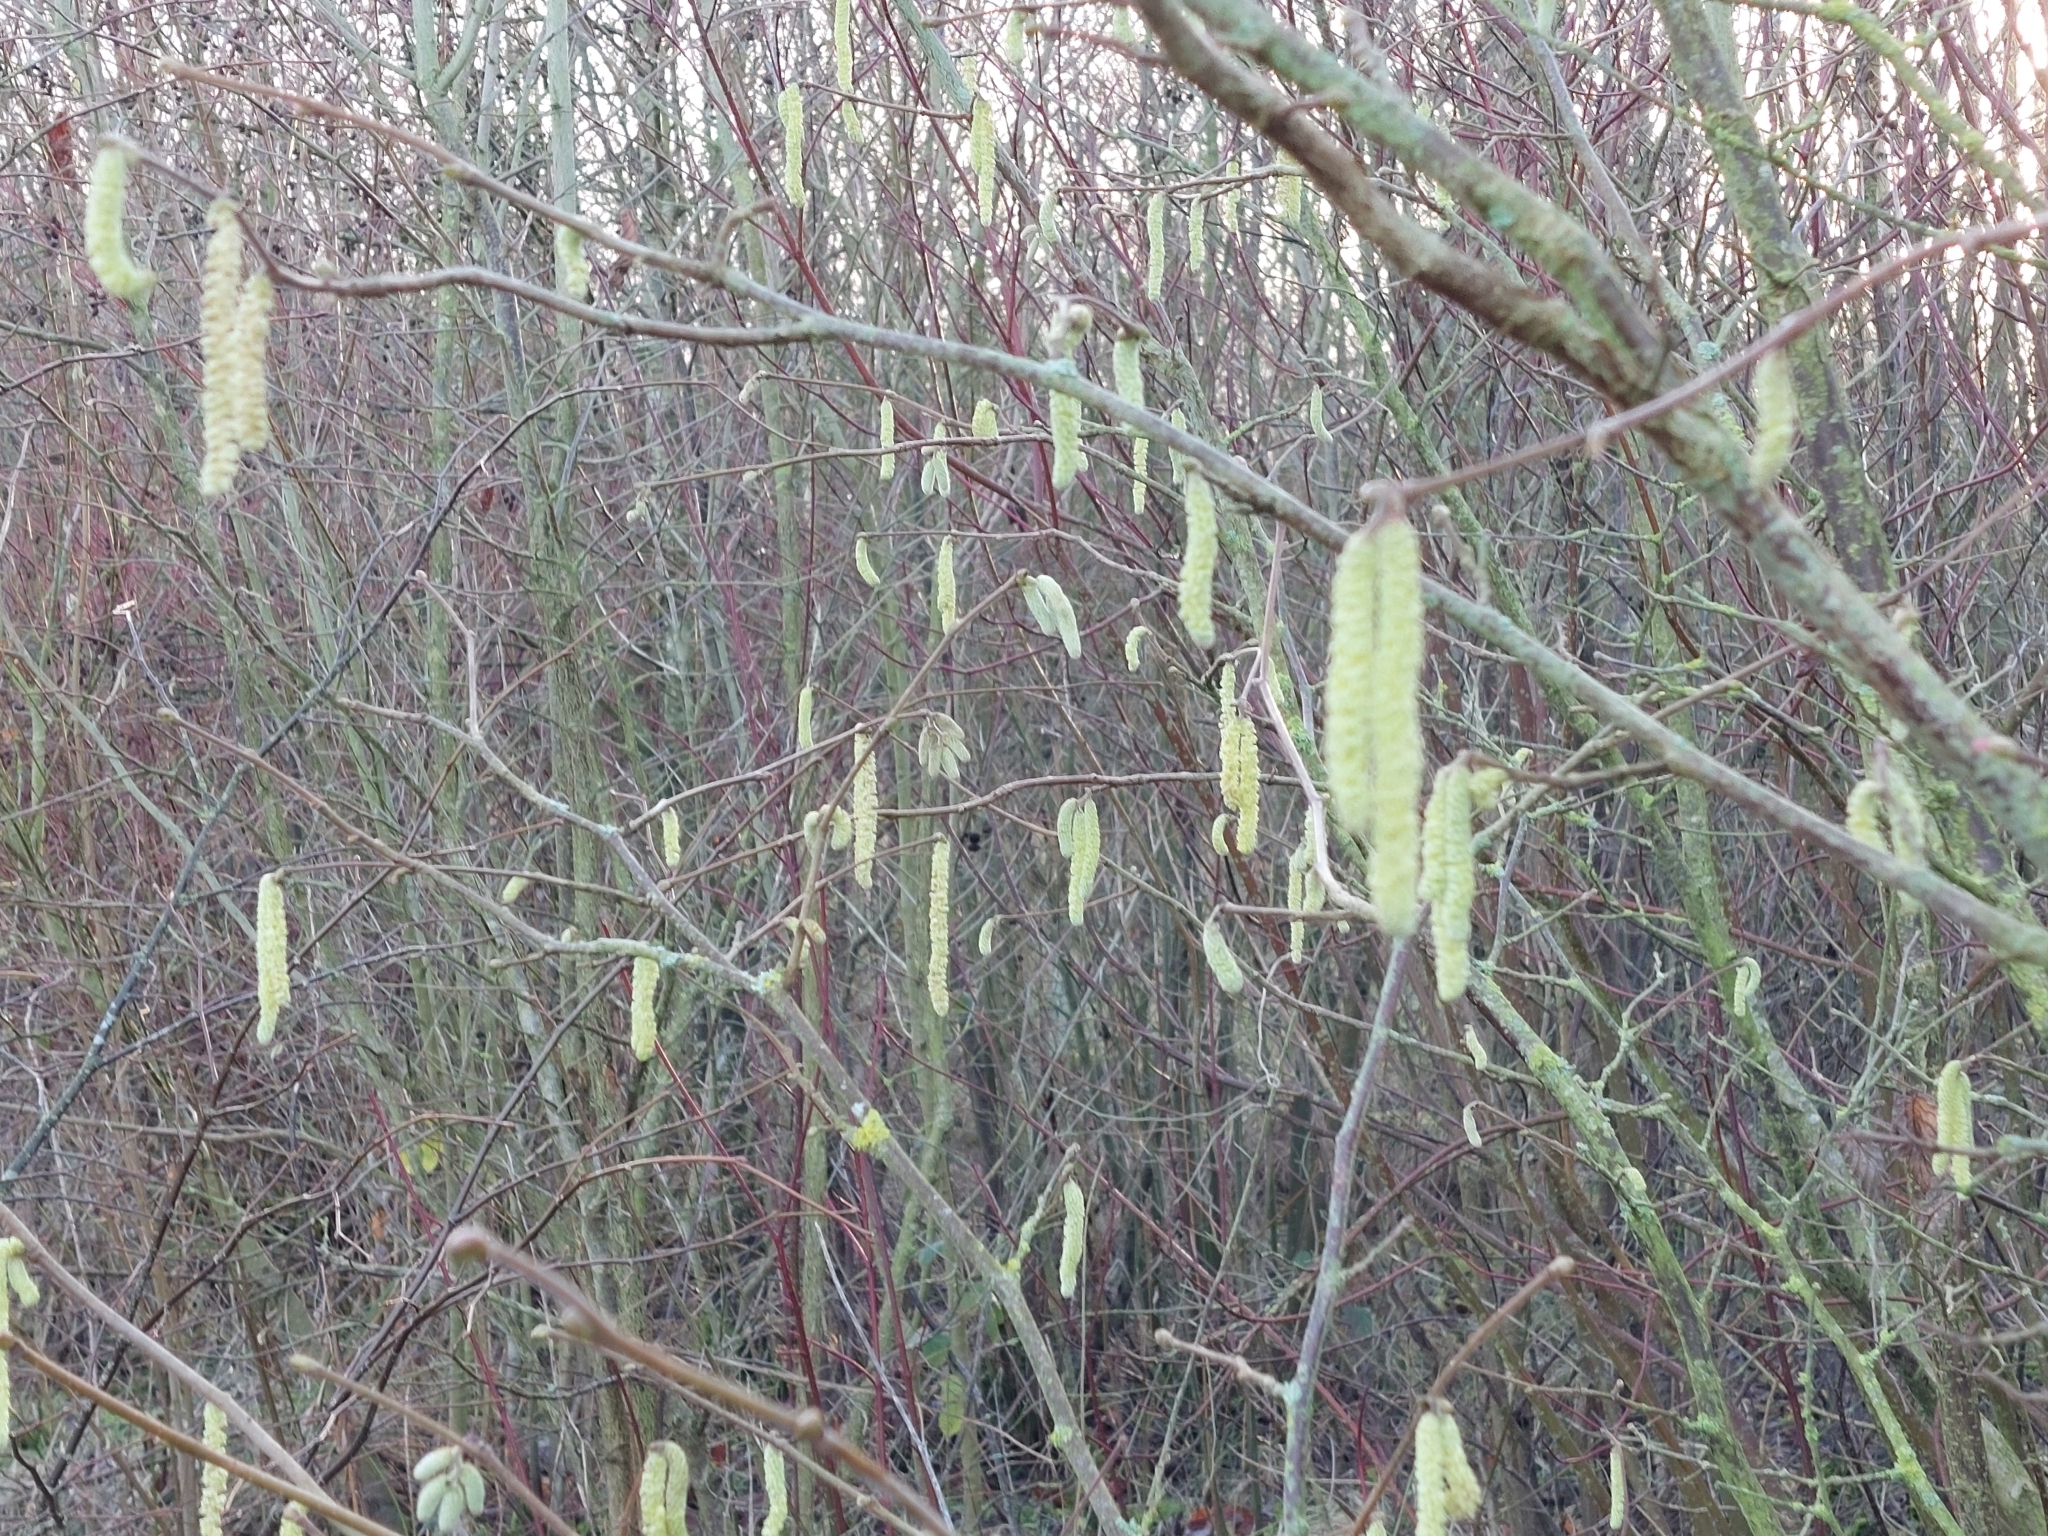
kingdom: Plantae
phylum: Tracheophyta
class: Magnoliopsida
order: Fagales
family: Betulaceae
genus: Corylus
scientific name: Corylus avellana
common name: European hazel
